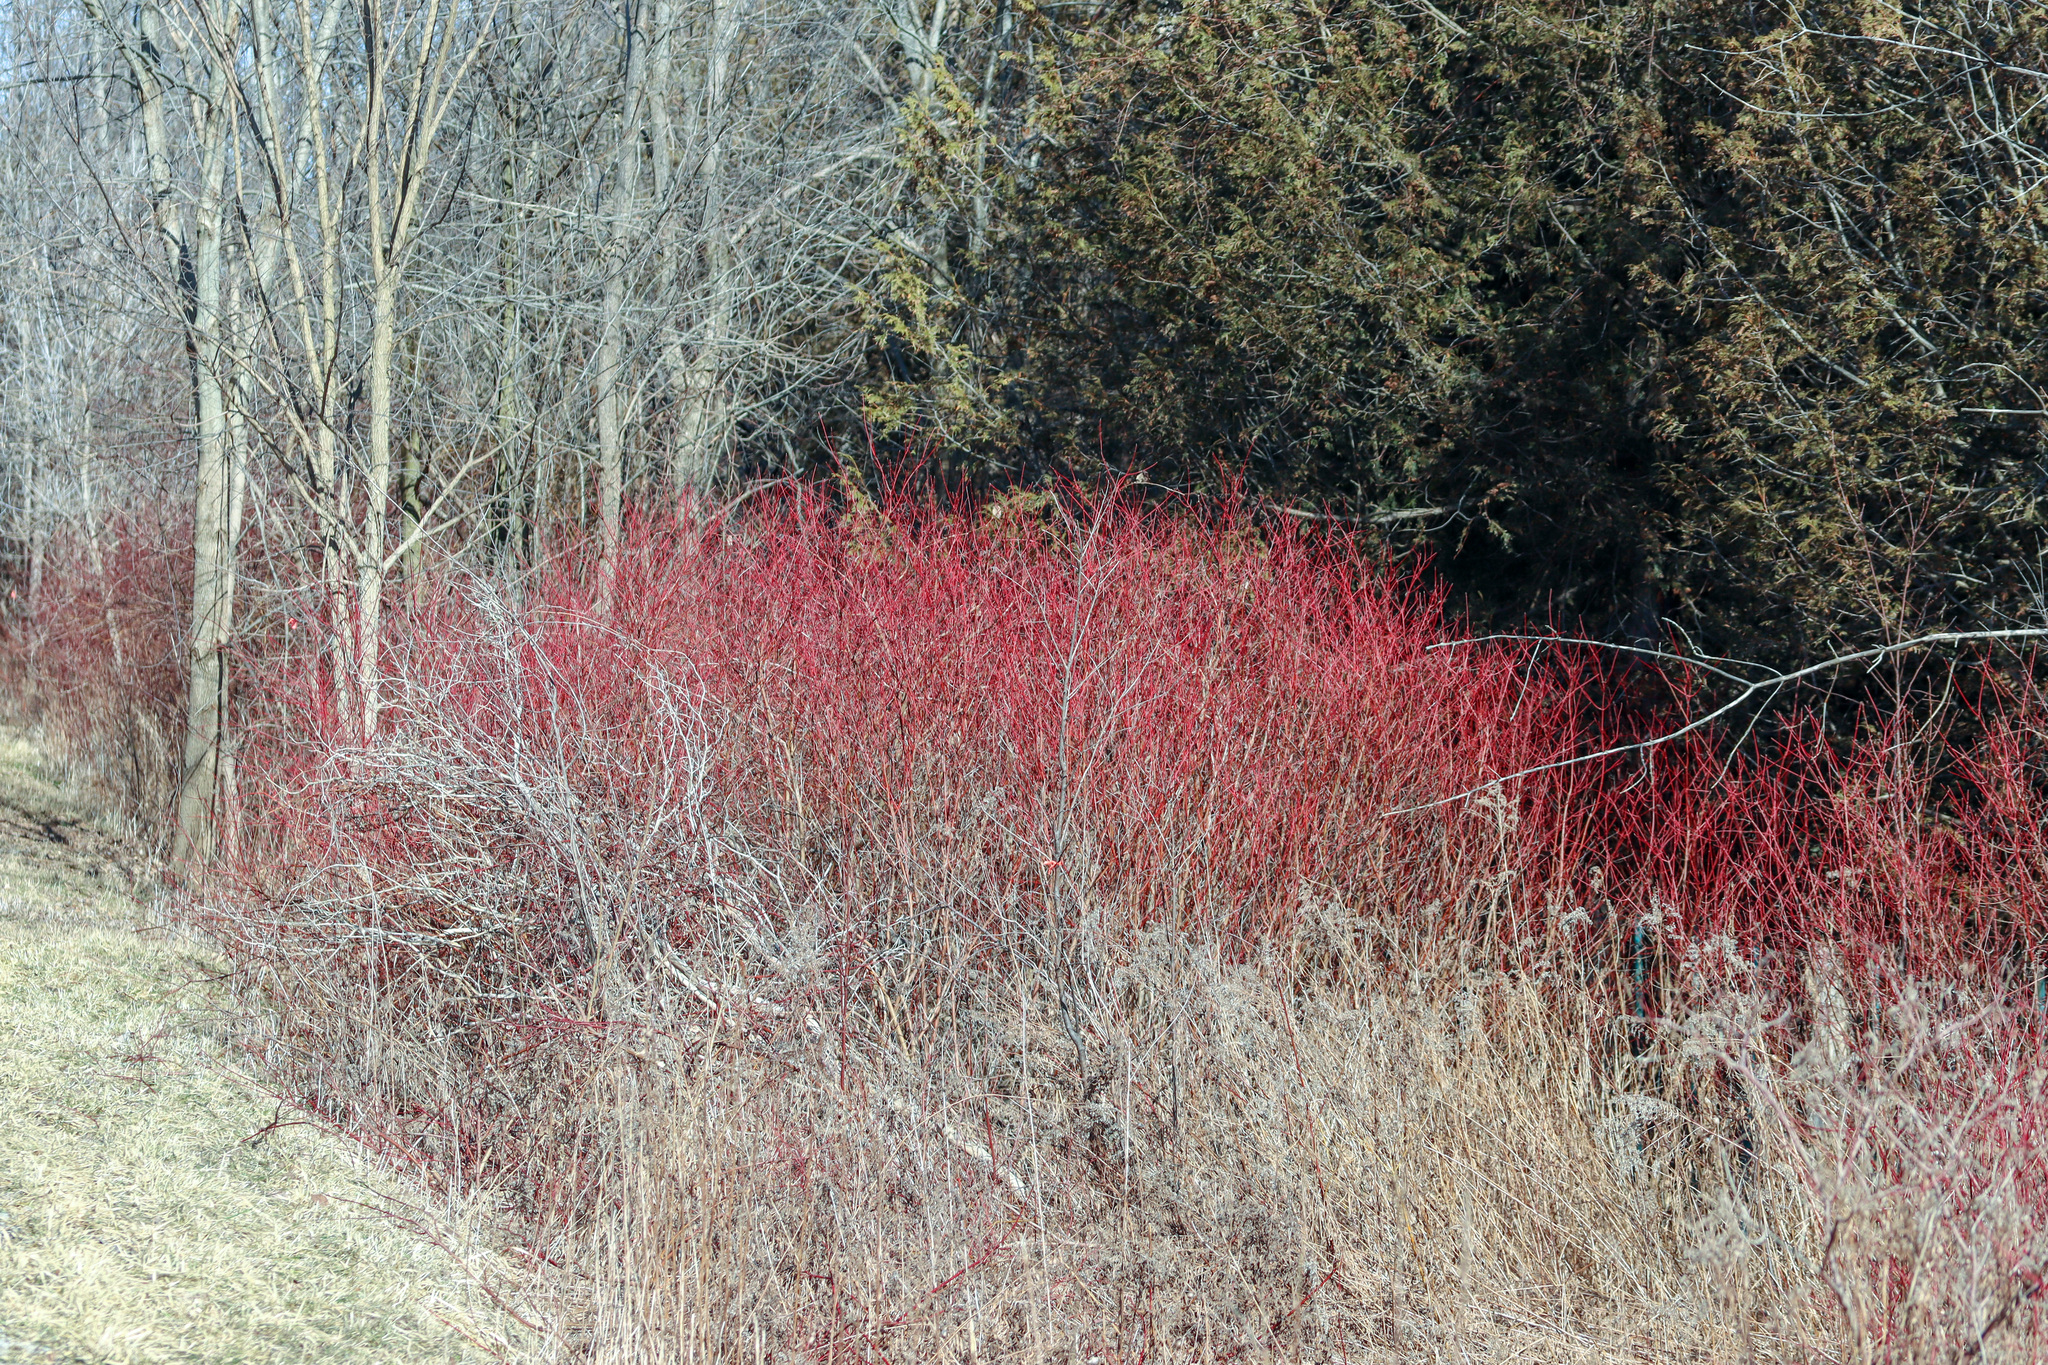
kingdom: Plantae
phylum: Tracheophyta
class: Magnoliopsida
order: Cornales
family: Cornaceae
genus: Cornus
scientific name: Cornus sericea
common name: Red-osier dogwood
